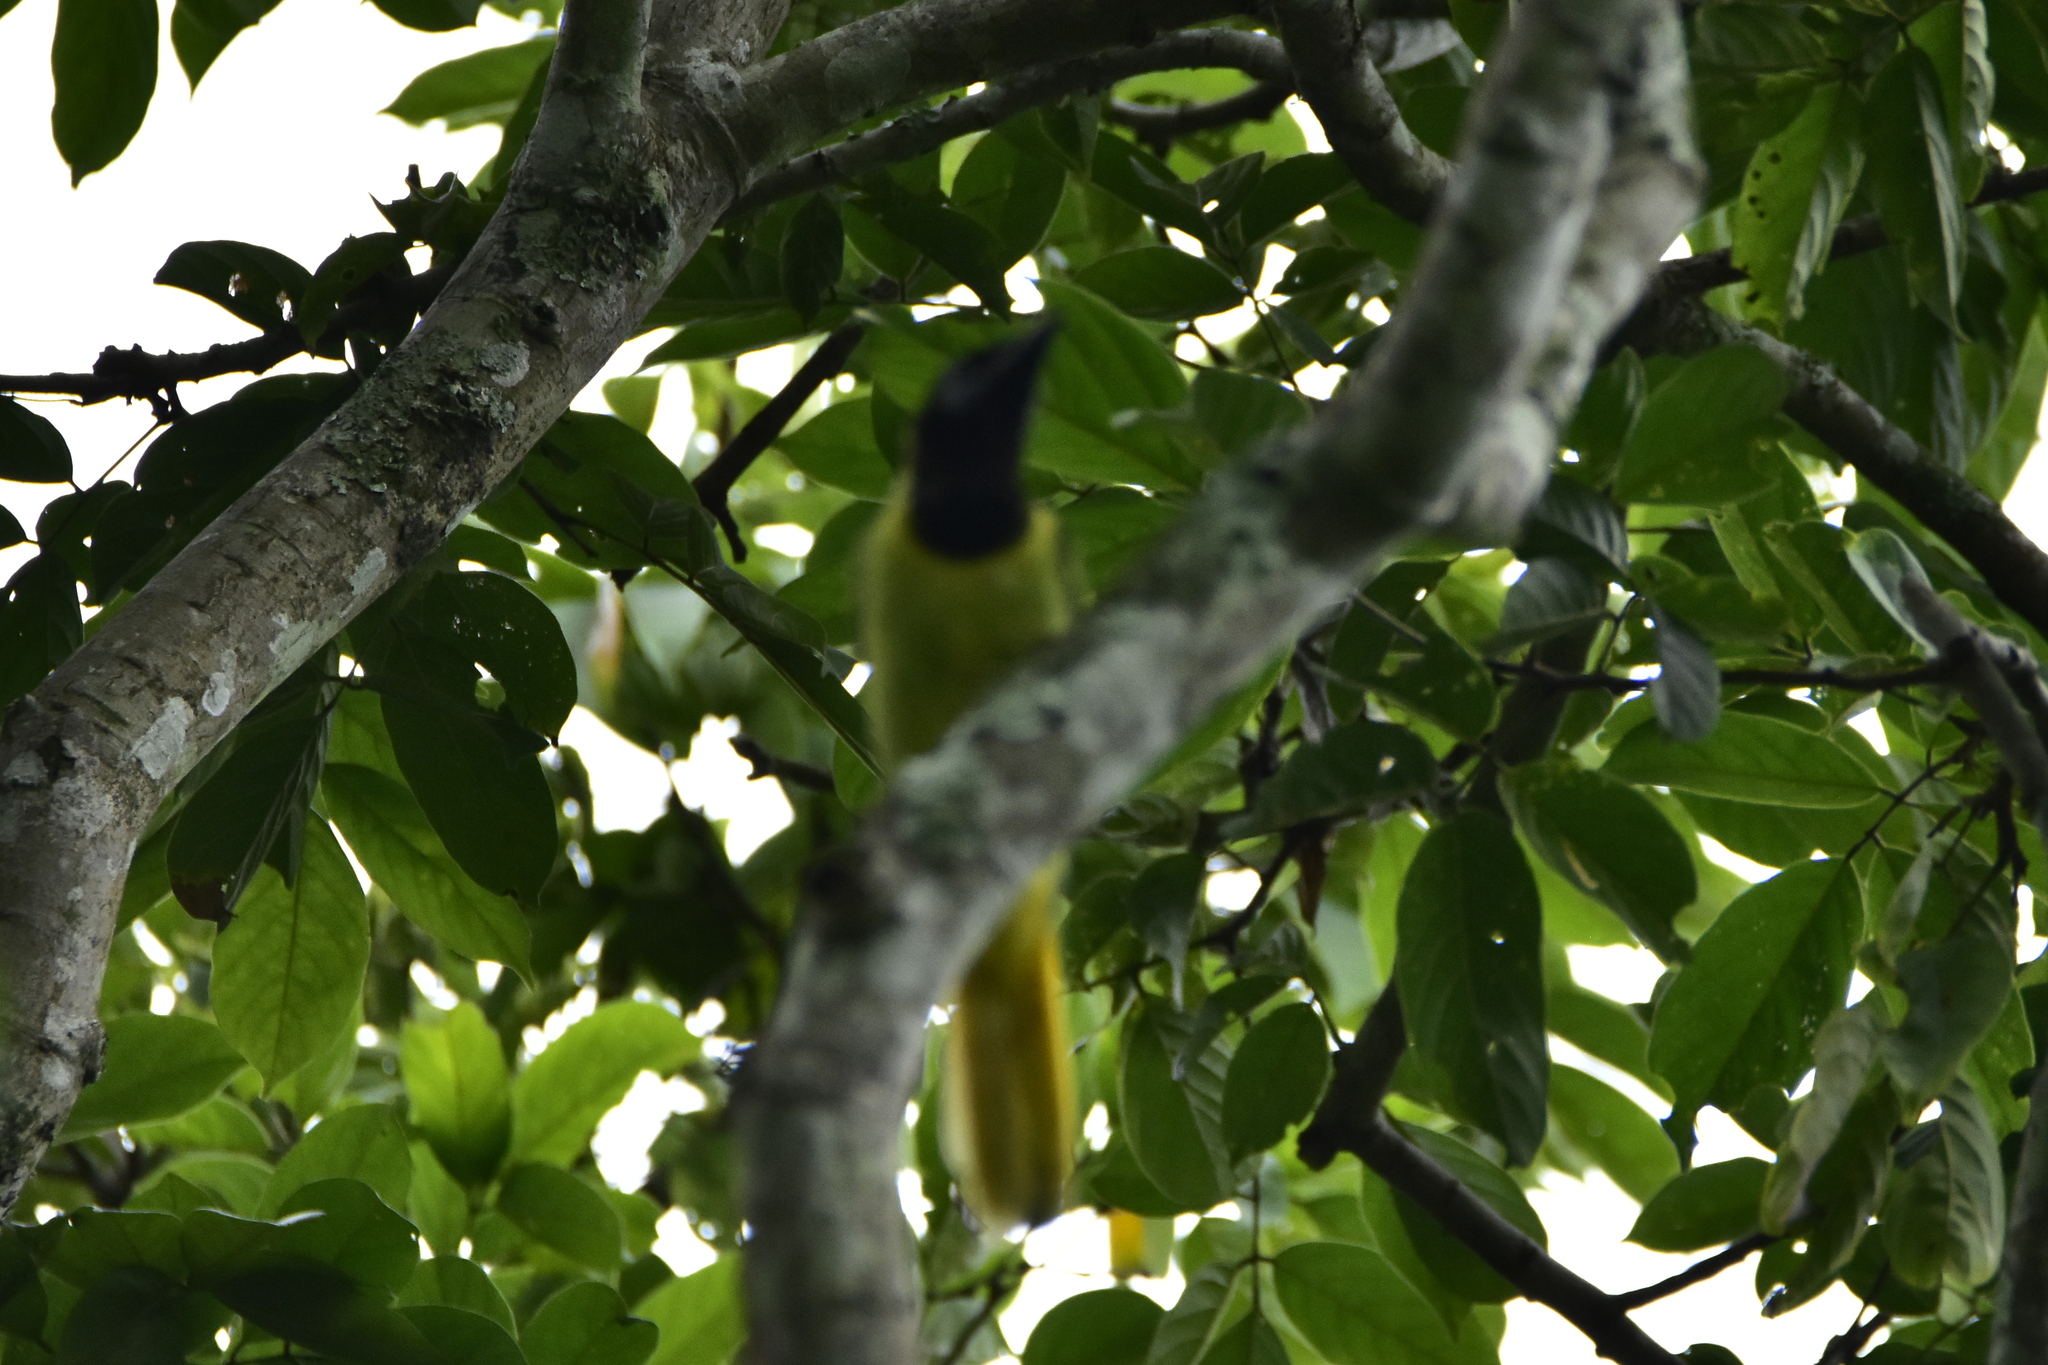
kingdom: Animalia
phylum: Chordata
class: Aves
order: Passeriformes
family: Corvidae
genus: Cyanocorax
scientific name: Cyanocorax yncas
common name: Green jay
